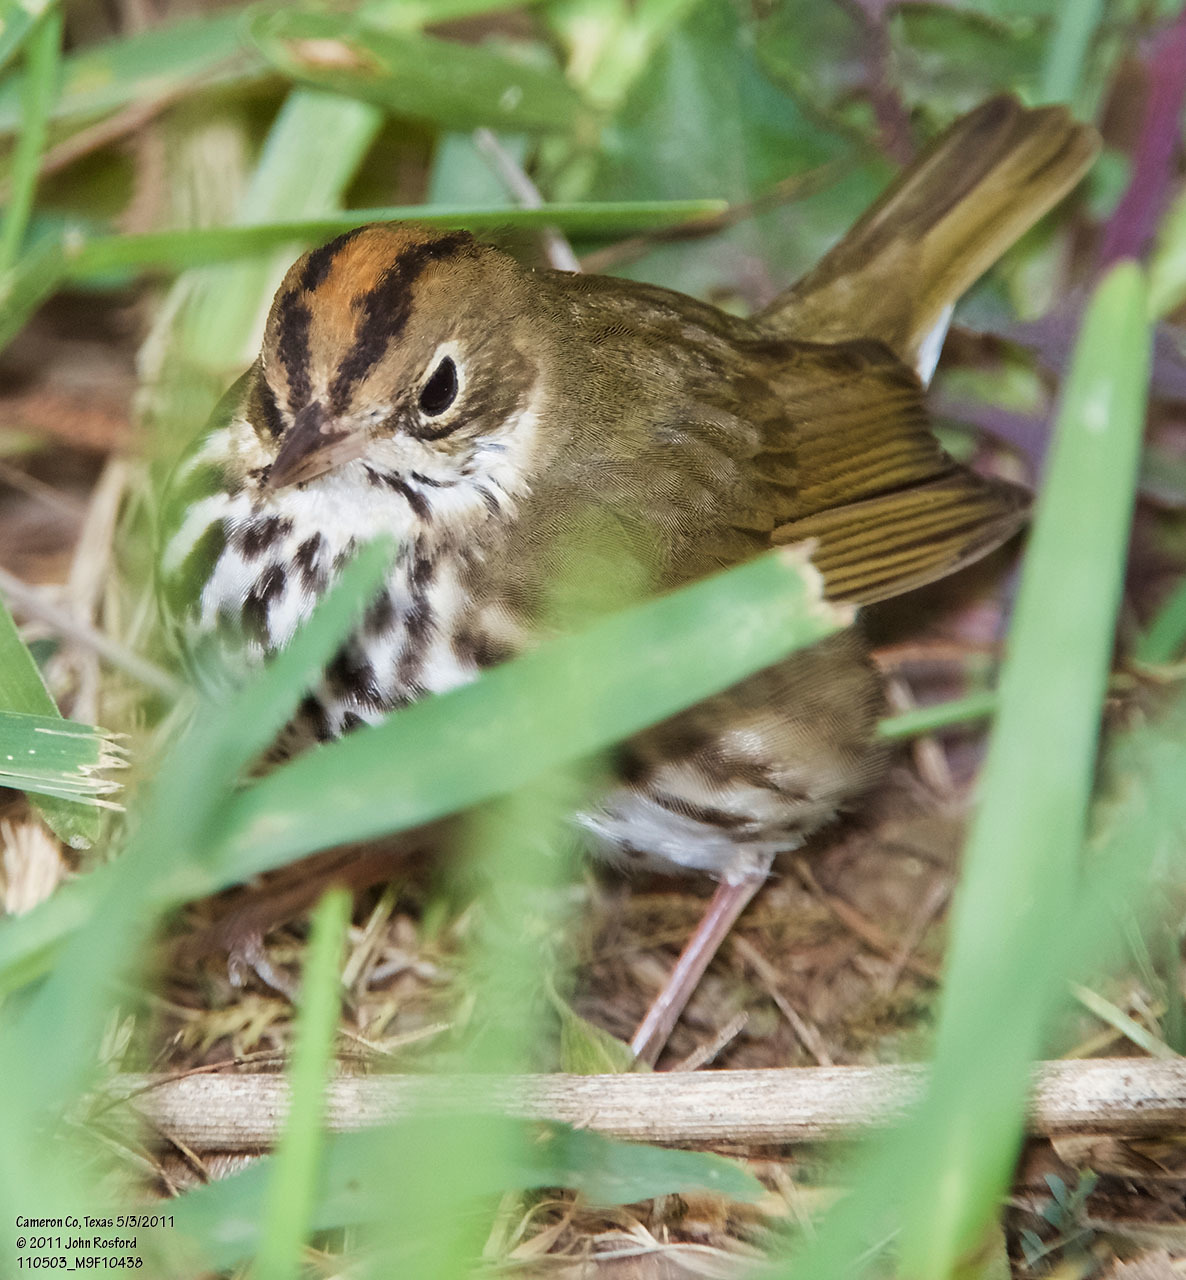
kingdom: Animalia
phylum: Chordata
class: Aves
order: Passeriformes
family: Parulidae
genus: Seiurus
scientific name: Seiurus aurocapilla
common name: Ovenbird
